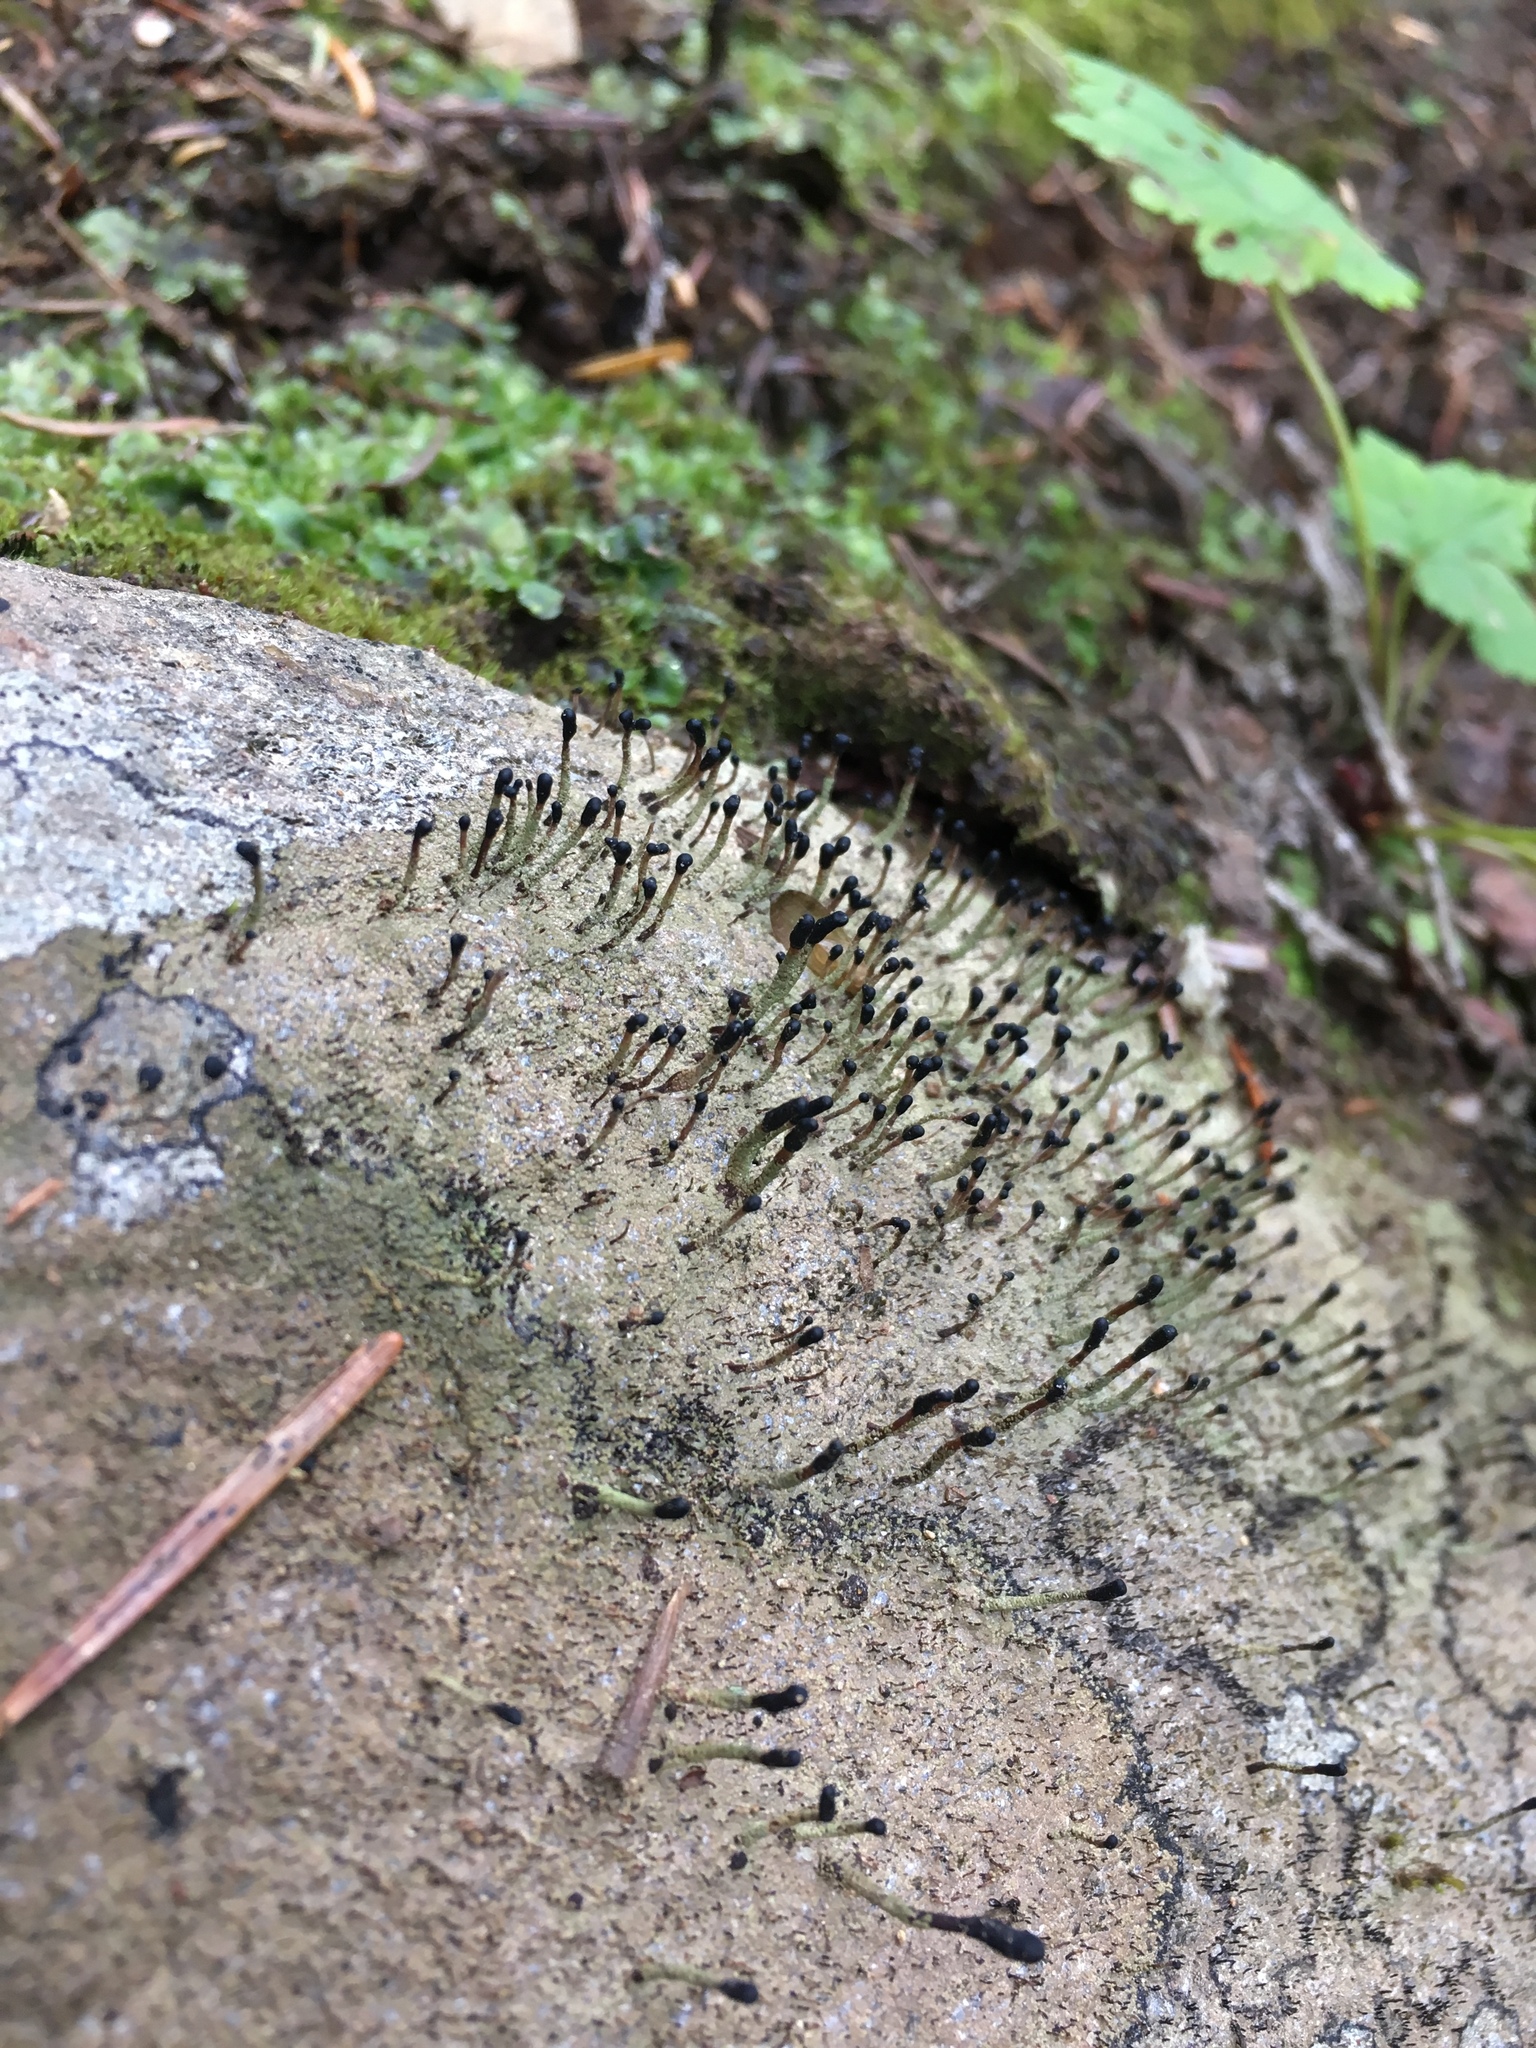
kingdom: Fungi
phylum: Ascomycota
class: Lecanoromycetes
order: Lecanorales
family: Cladoniaceae
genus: Pilophorus
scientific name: Pilophorus clavatus
